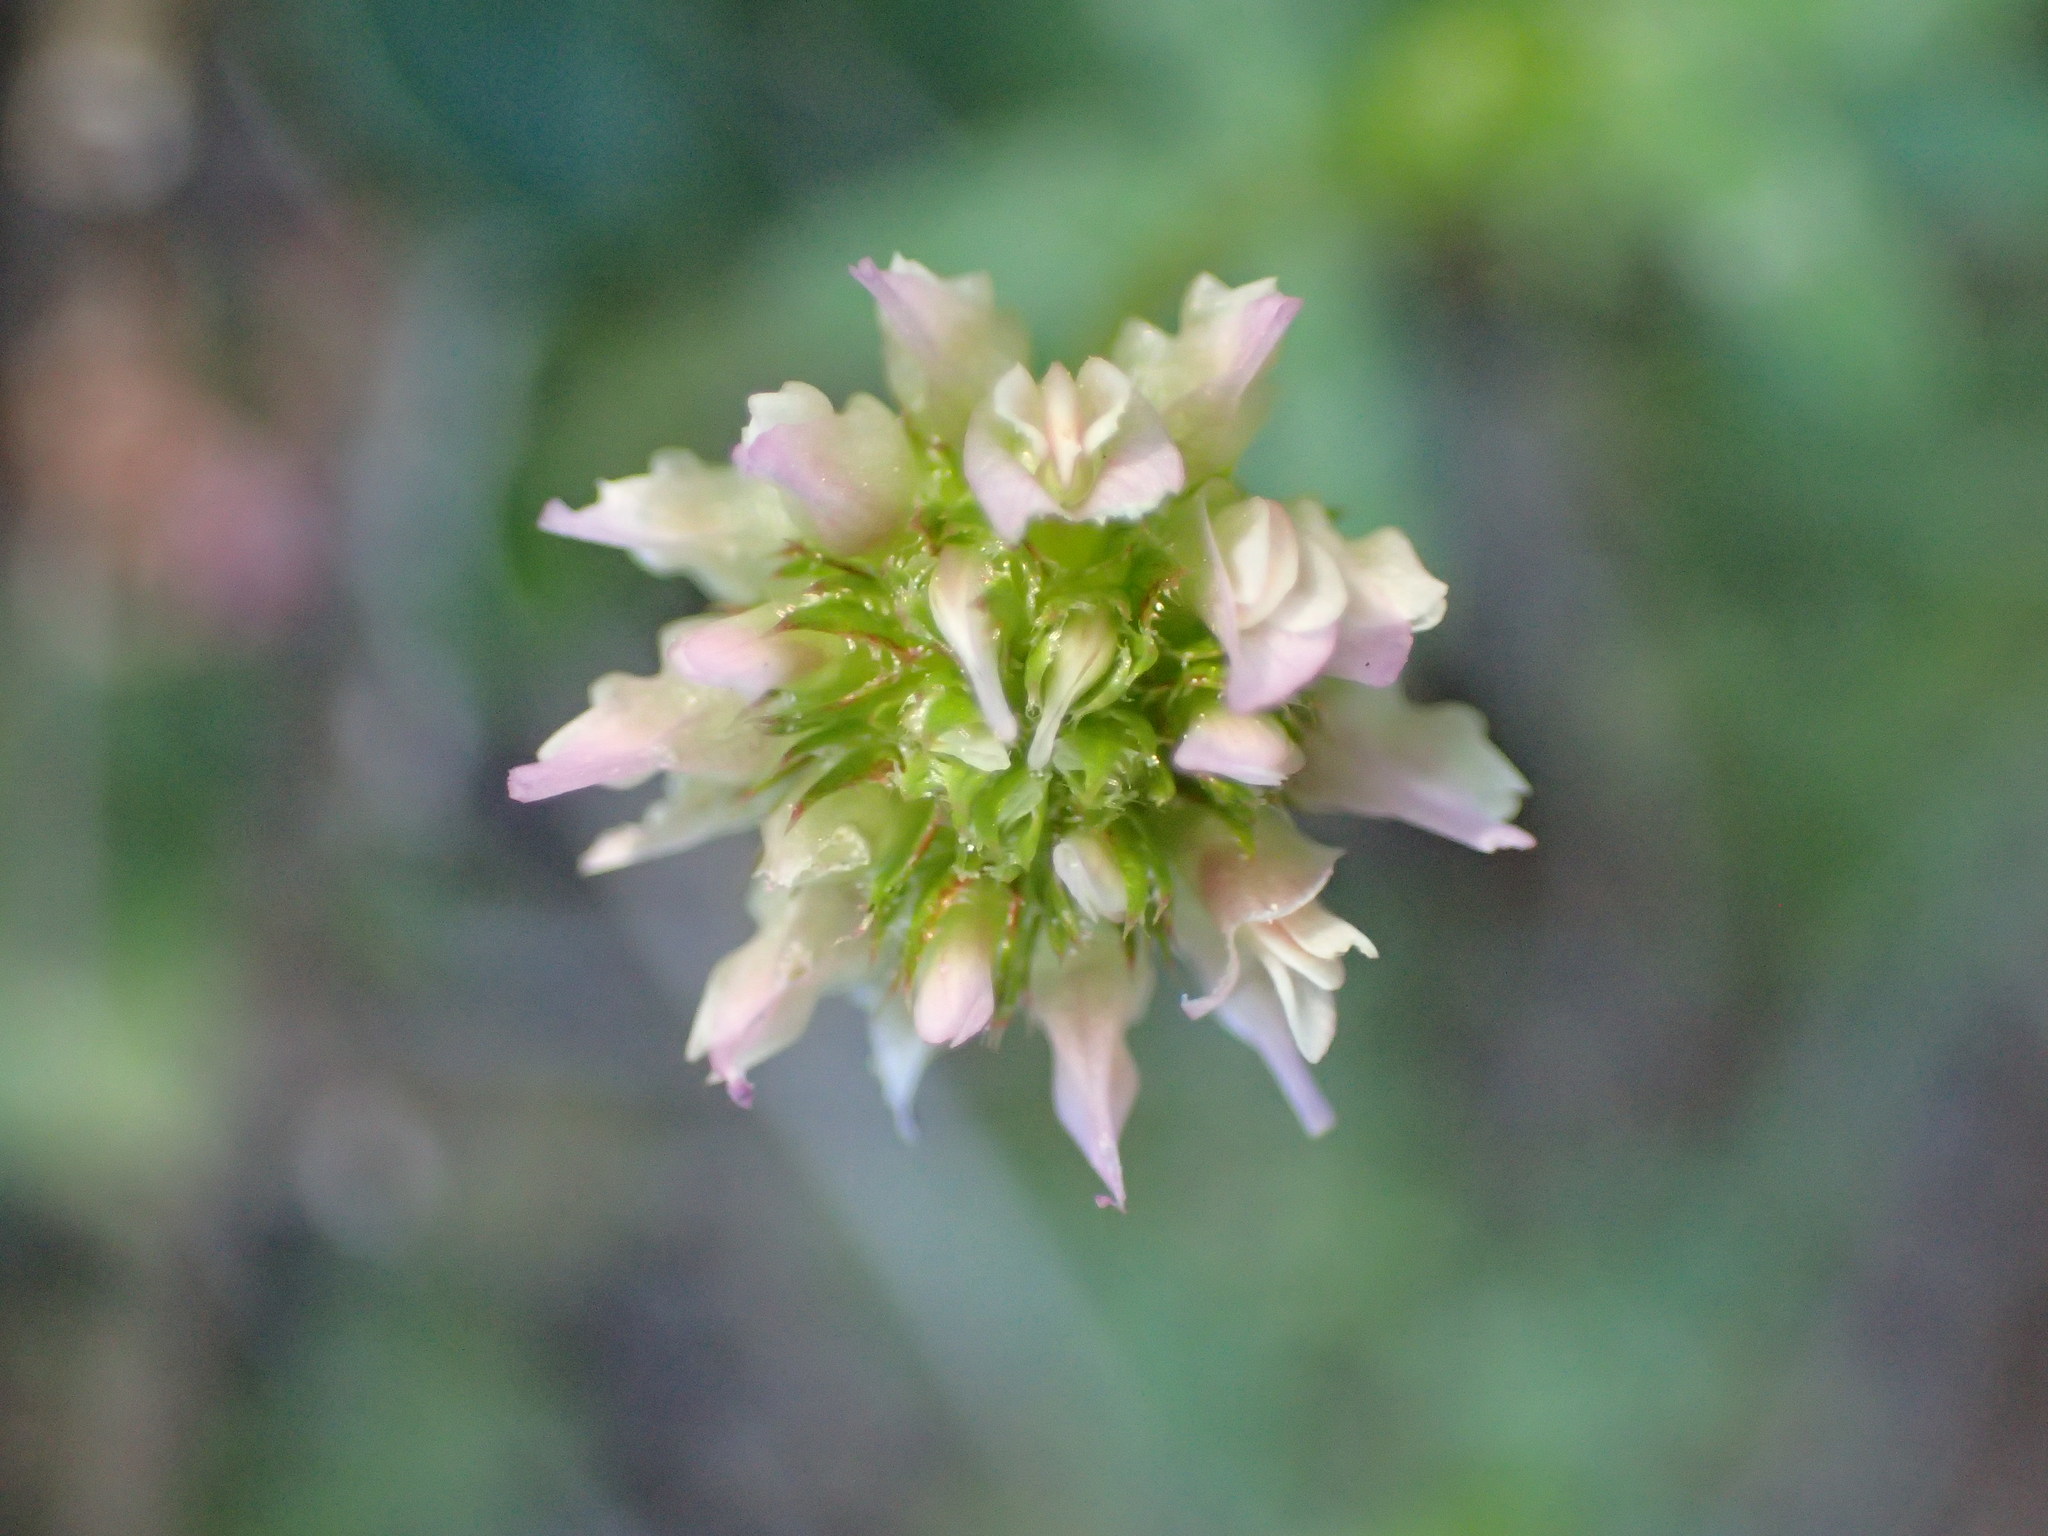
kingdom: Plantae
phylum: Tracheophyta
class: Magnoliopsida
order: Fabales
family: Fabaceae
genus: Trifolium
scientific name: Trifolium ciliolatum
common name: Foothill clover
